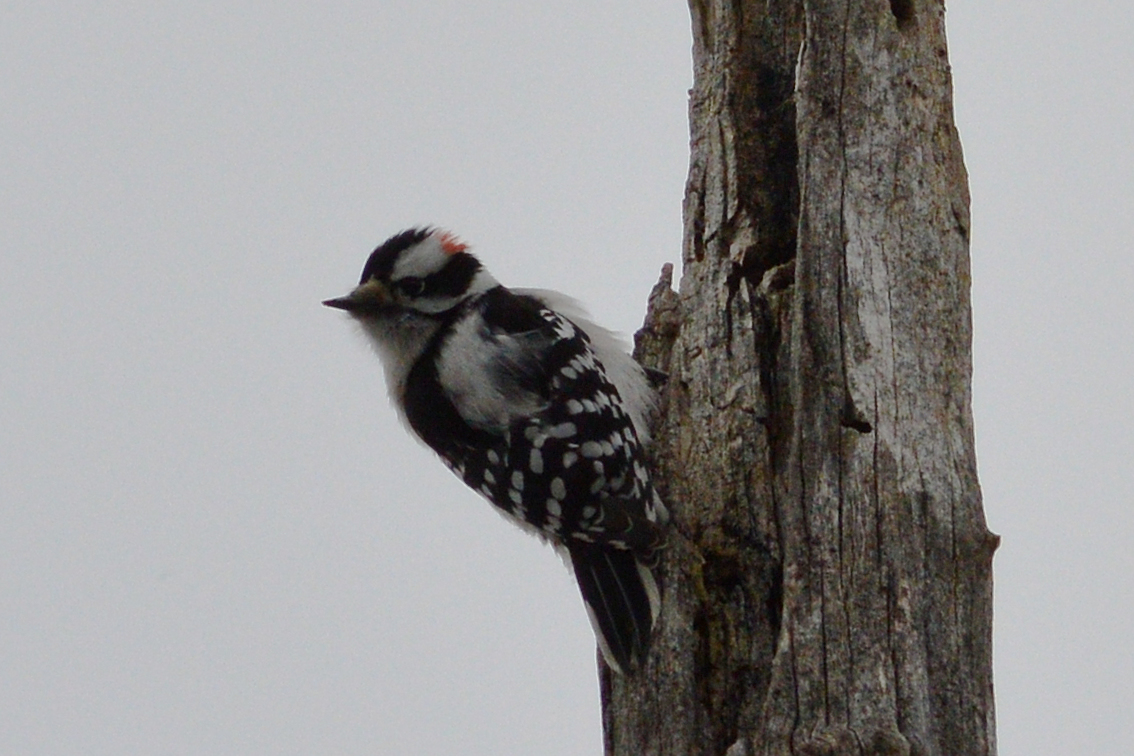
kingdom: Animalia
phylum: Chordata
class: Aves
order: Piciformes
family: Picidae
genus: Dryobates
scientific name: Dryobates pubescens
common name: Downy woodpecker
